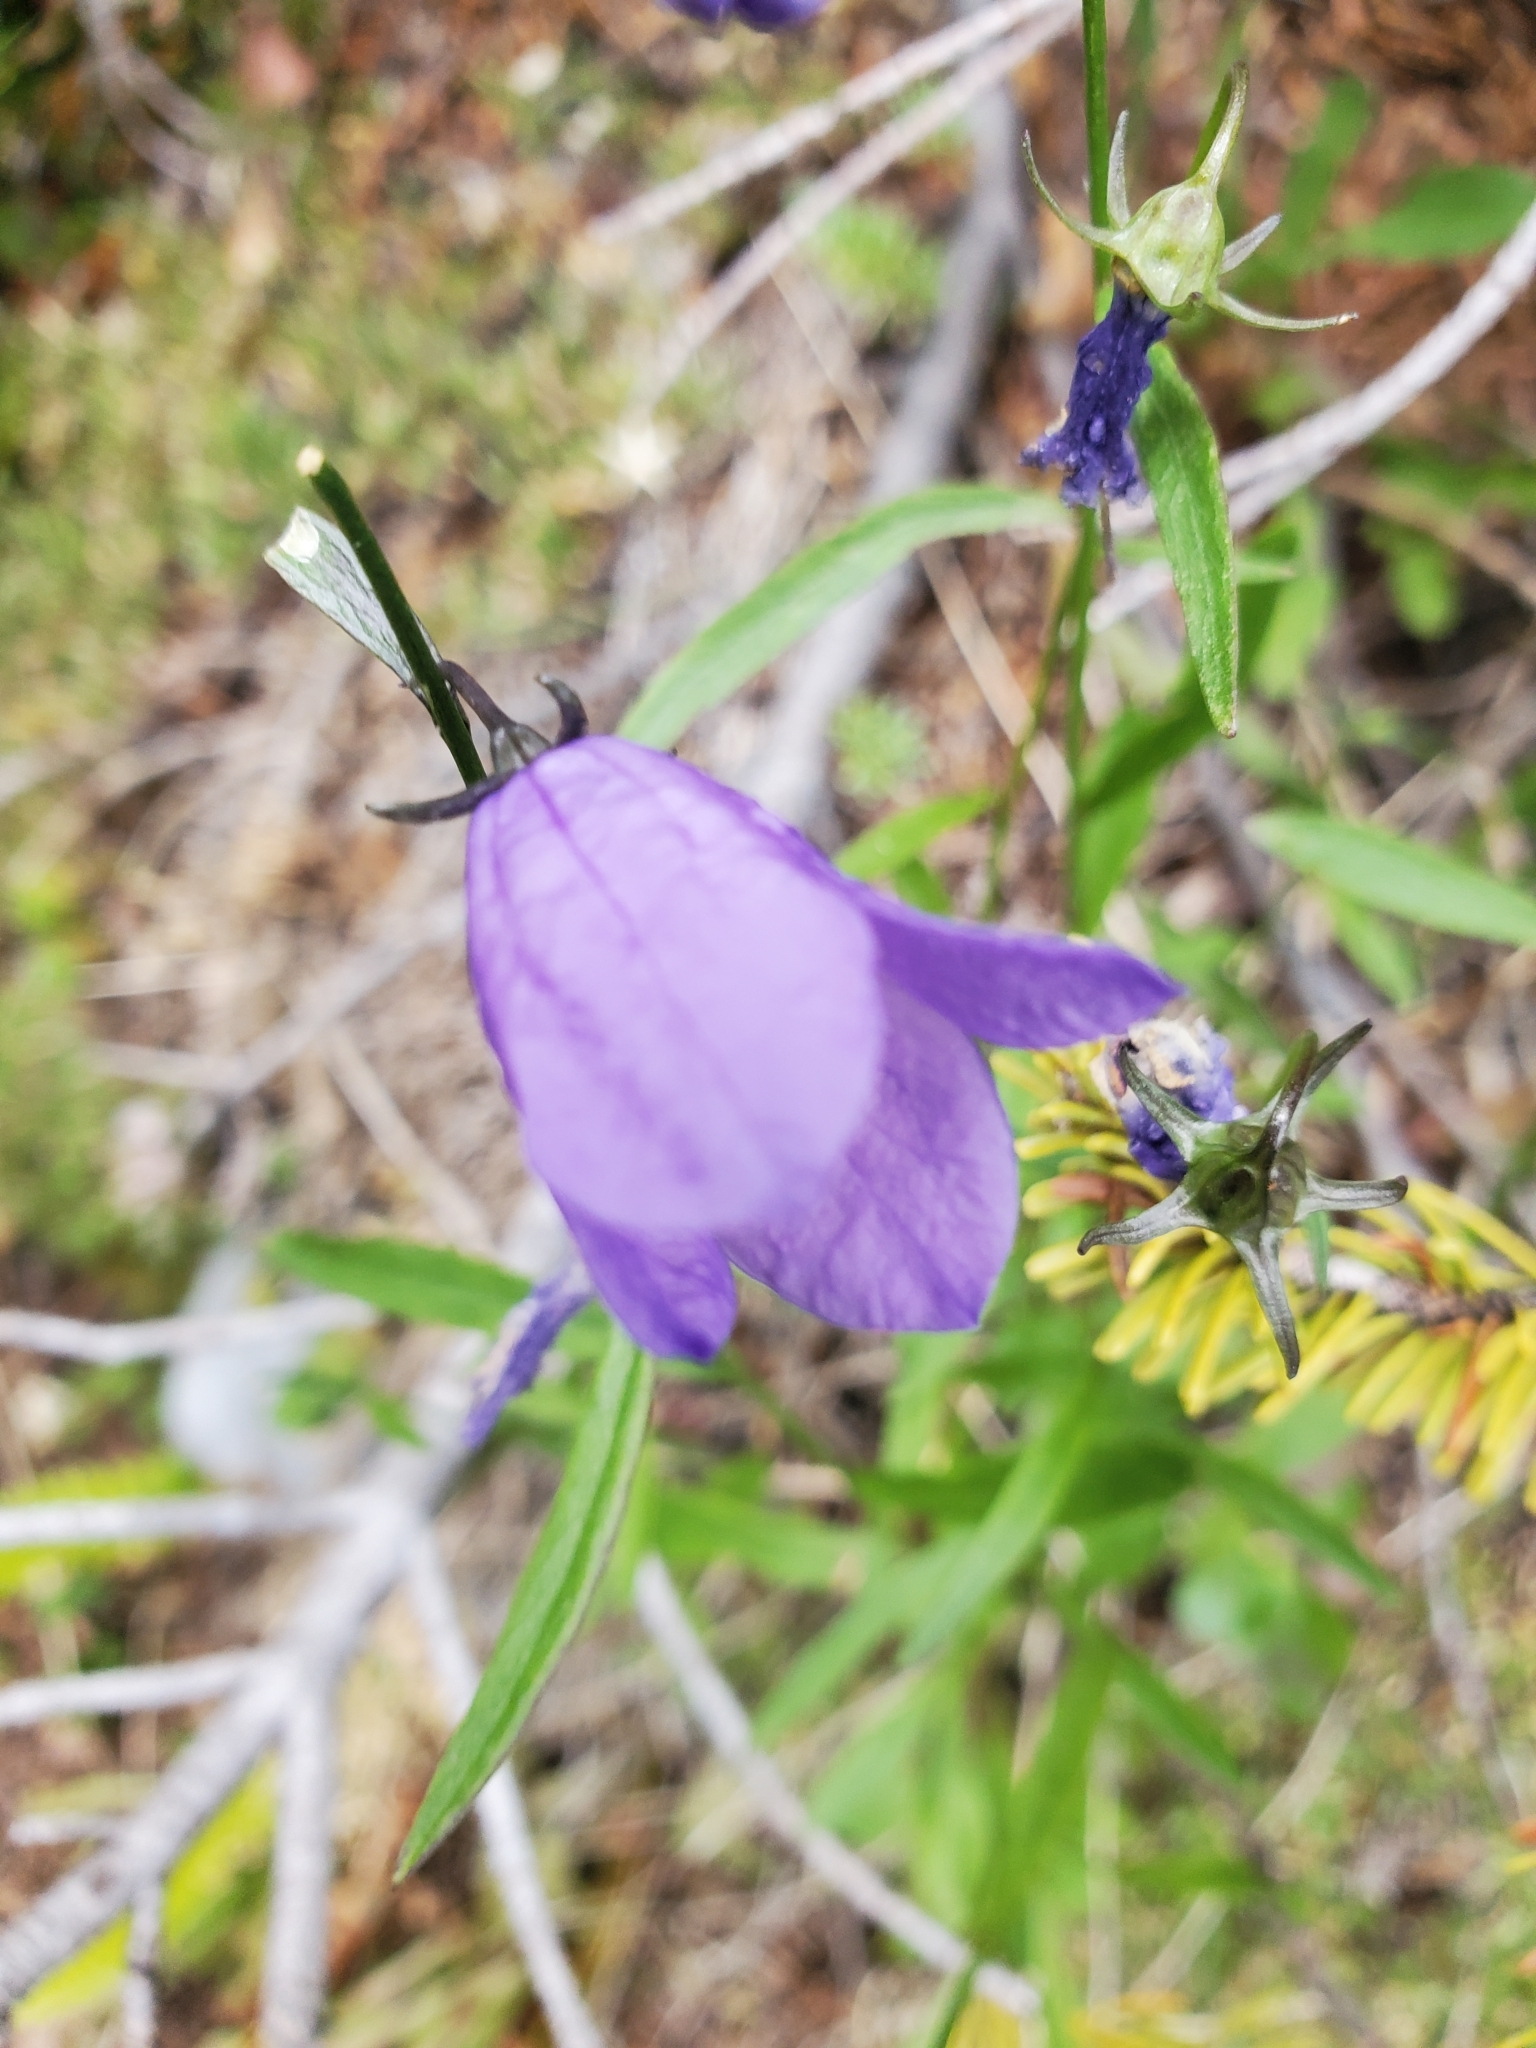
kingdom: Plantae
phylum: Tracheophyta
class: Magnoliopsida
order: Asterales
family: Campanulaceae
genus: Campanula
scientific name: Campanula alaskana
